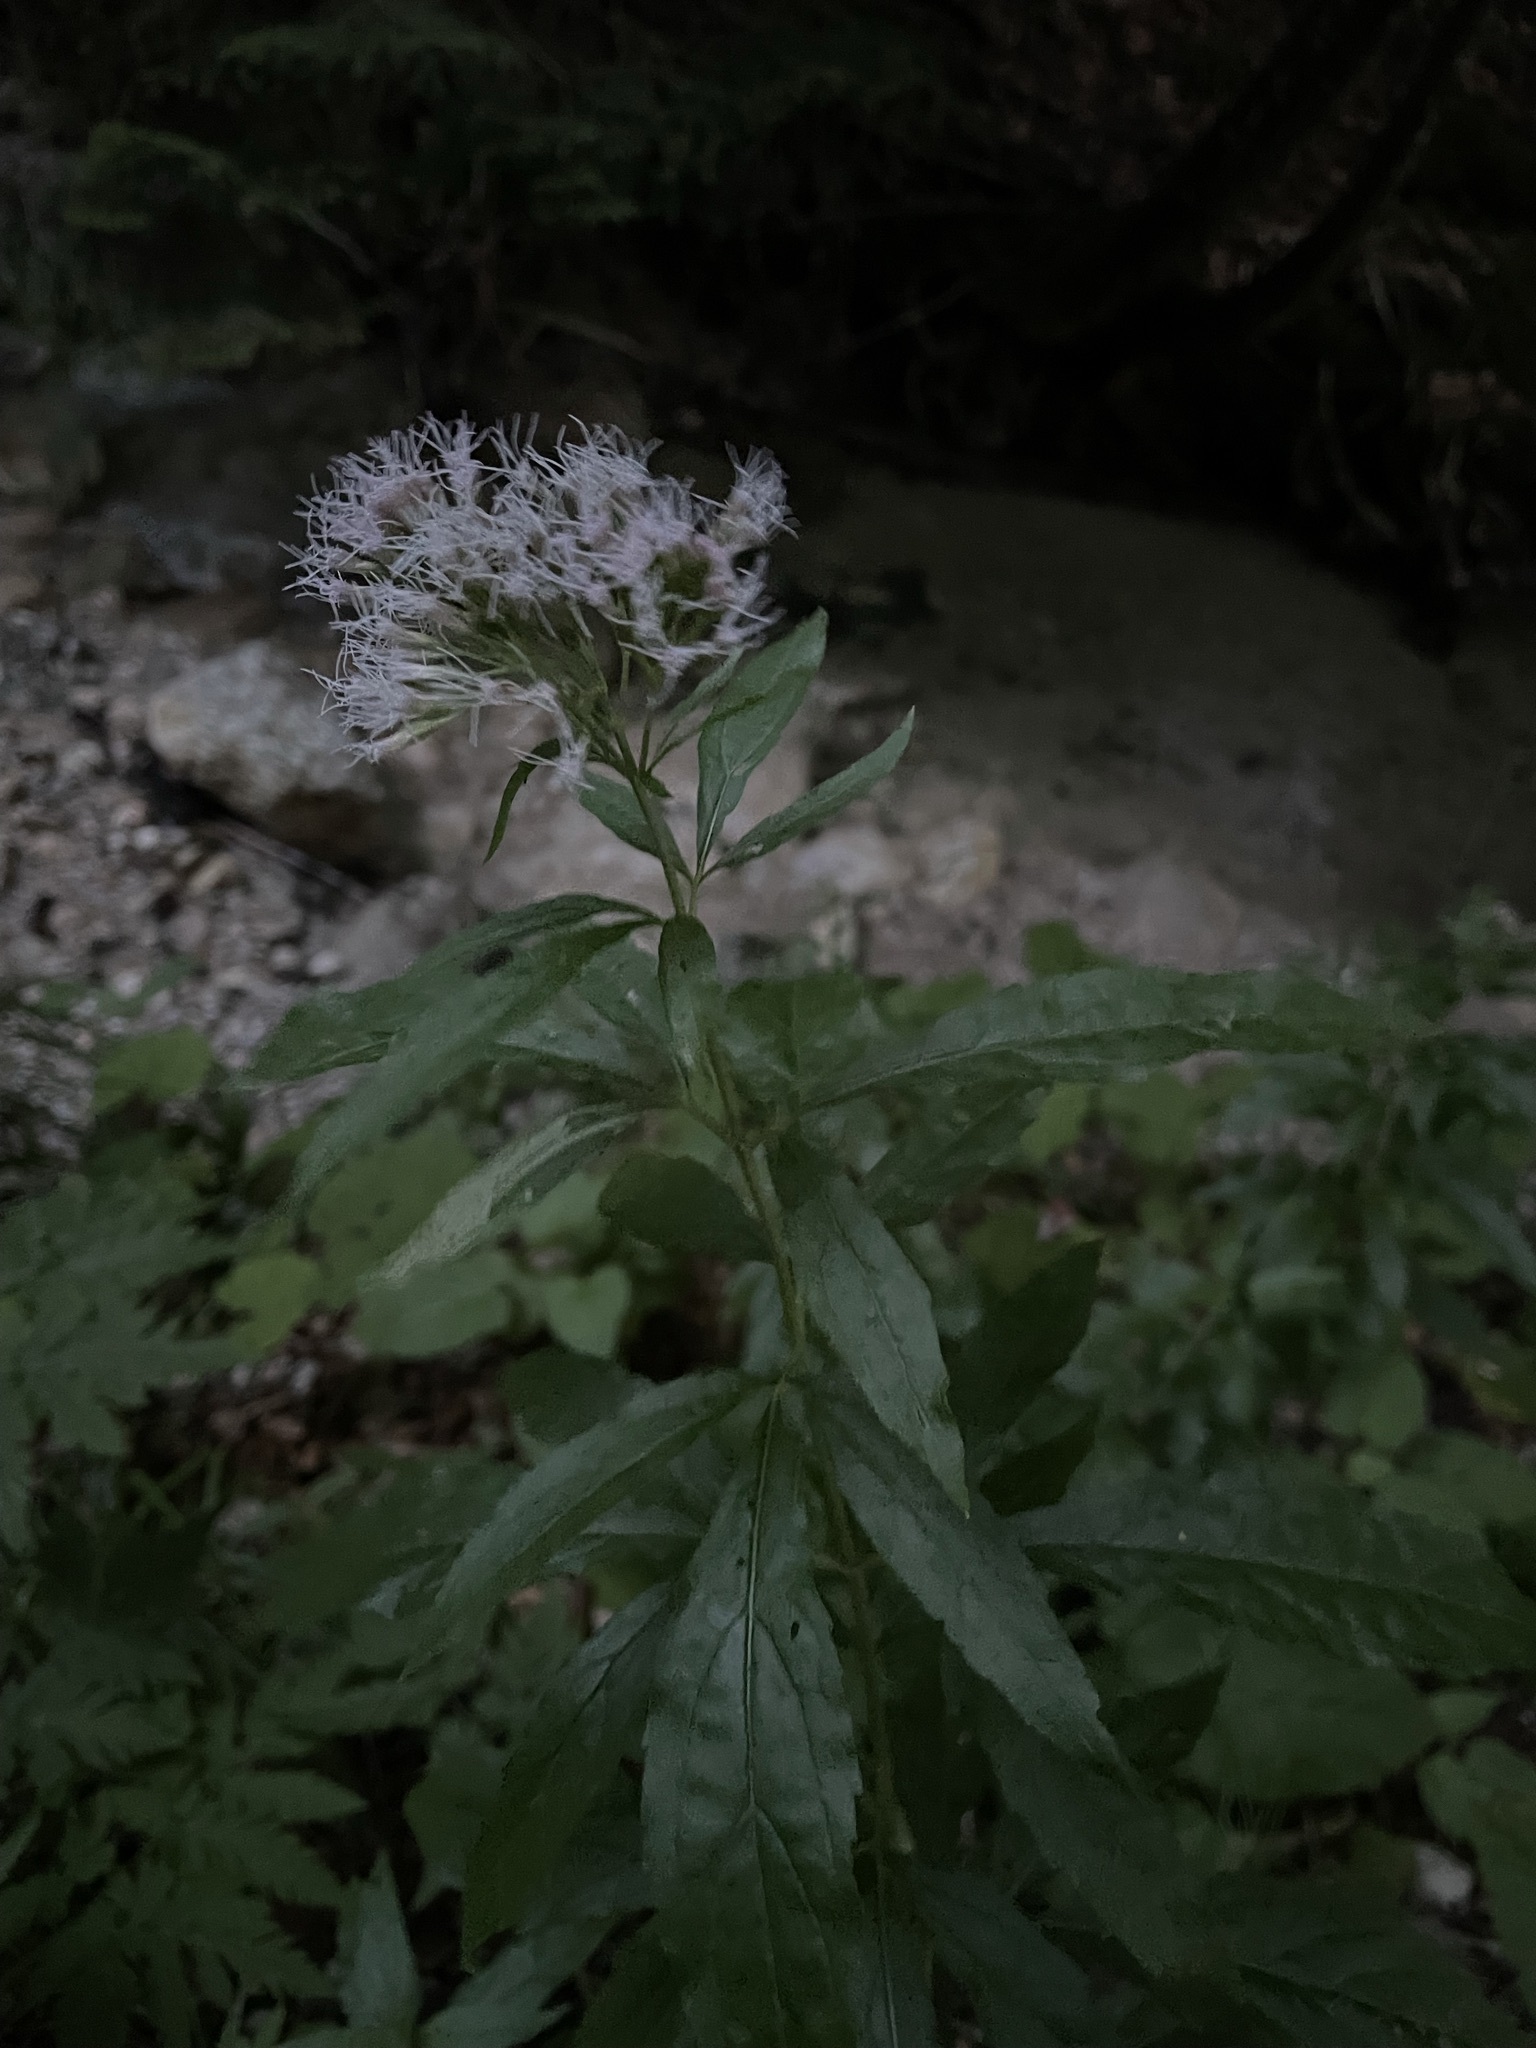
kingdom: Plantae
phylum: Tracheophyta
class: Magnoliopsida
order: Asterales
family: Asteraceae
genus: Eupatorium
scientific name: Eupatorium cannabinum
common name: Hemp-agrimony
